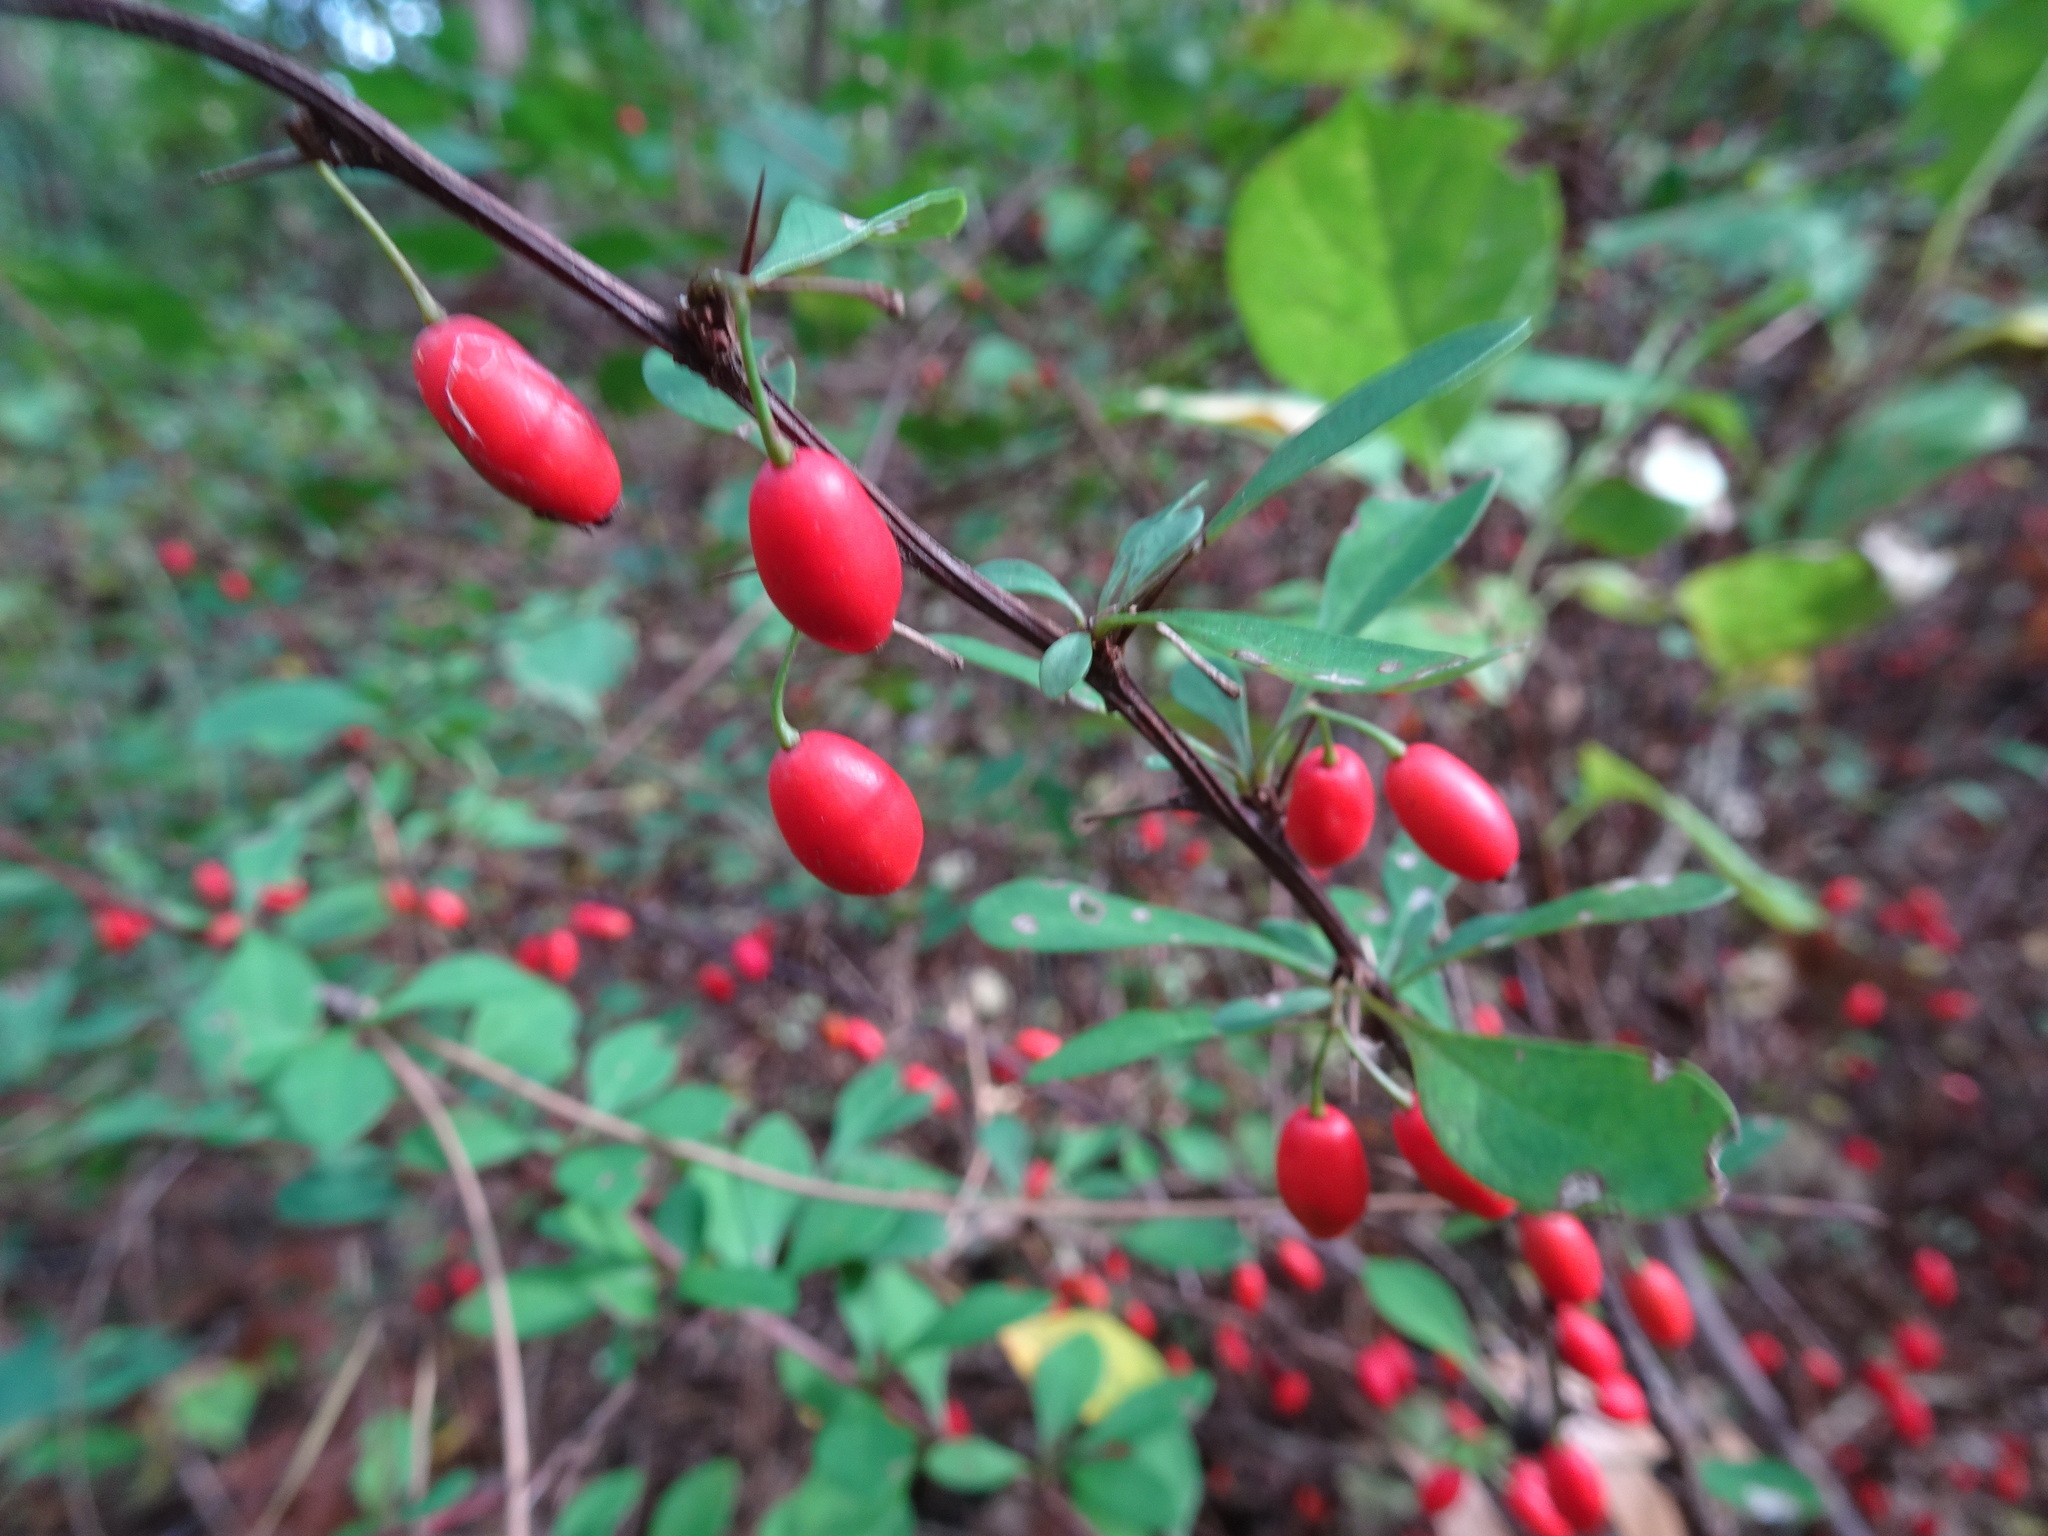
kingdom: Plantae
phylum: Tracheophyta
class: Magnoliopsida
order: Ranunculales
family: Berberidaceae
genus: Berberis
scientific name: Berberis thunbergii
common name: Japanese barberry
